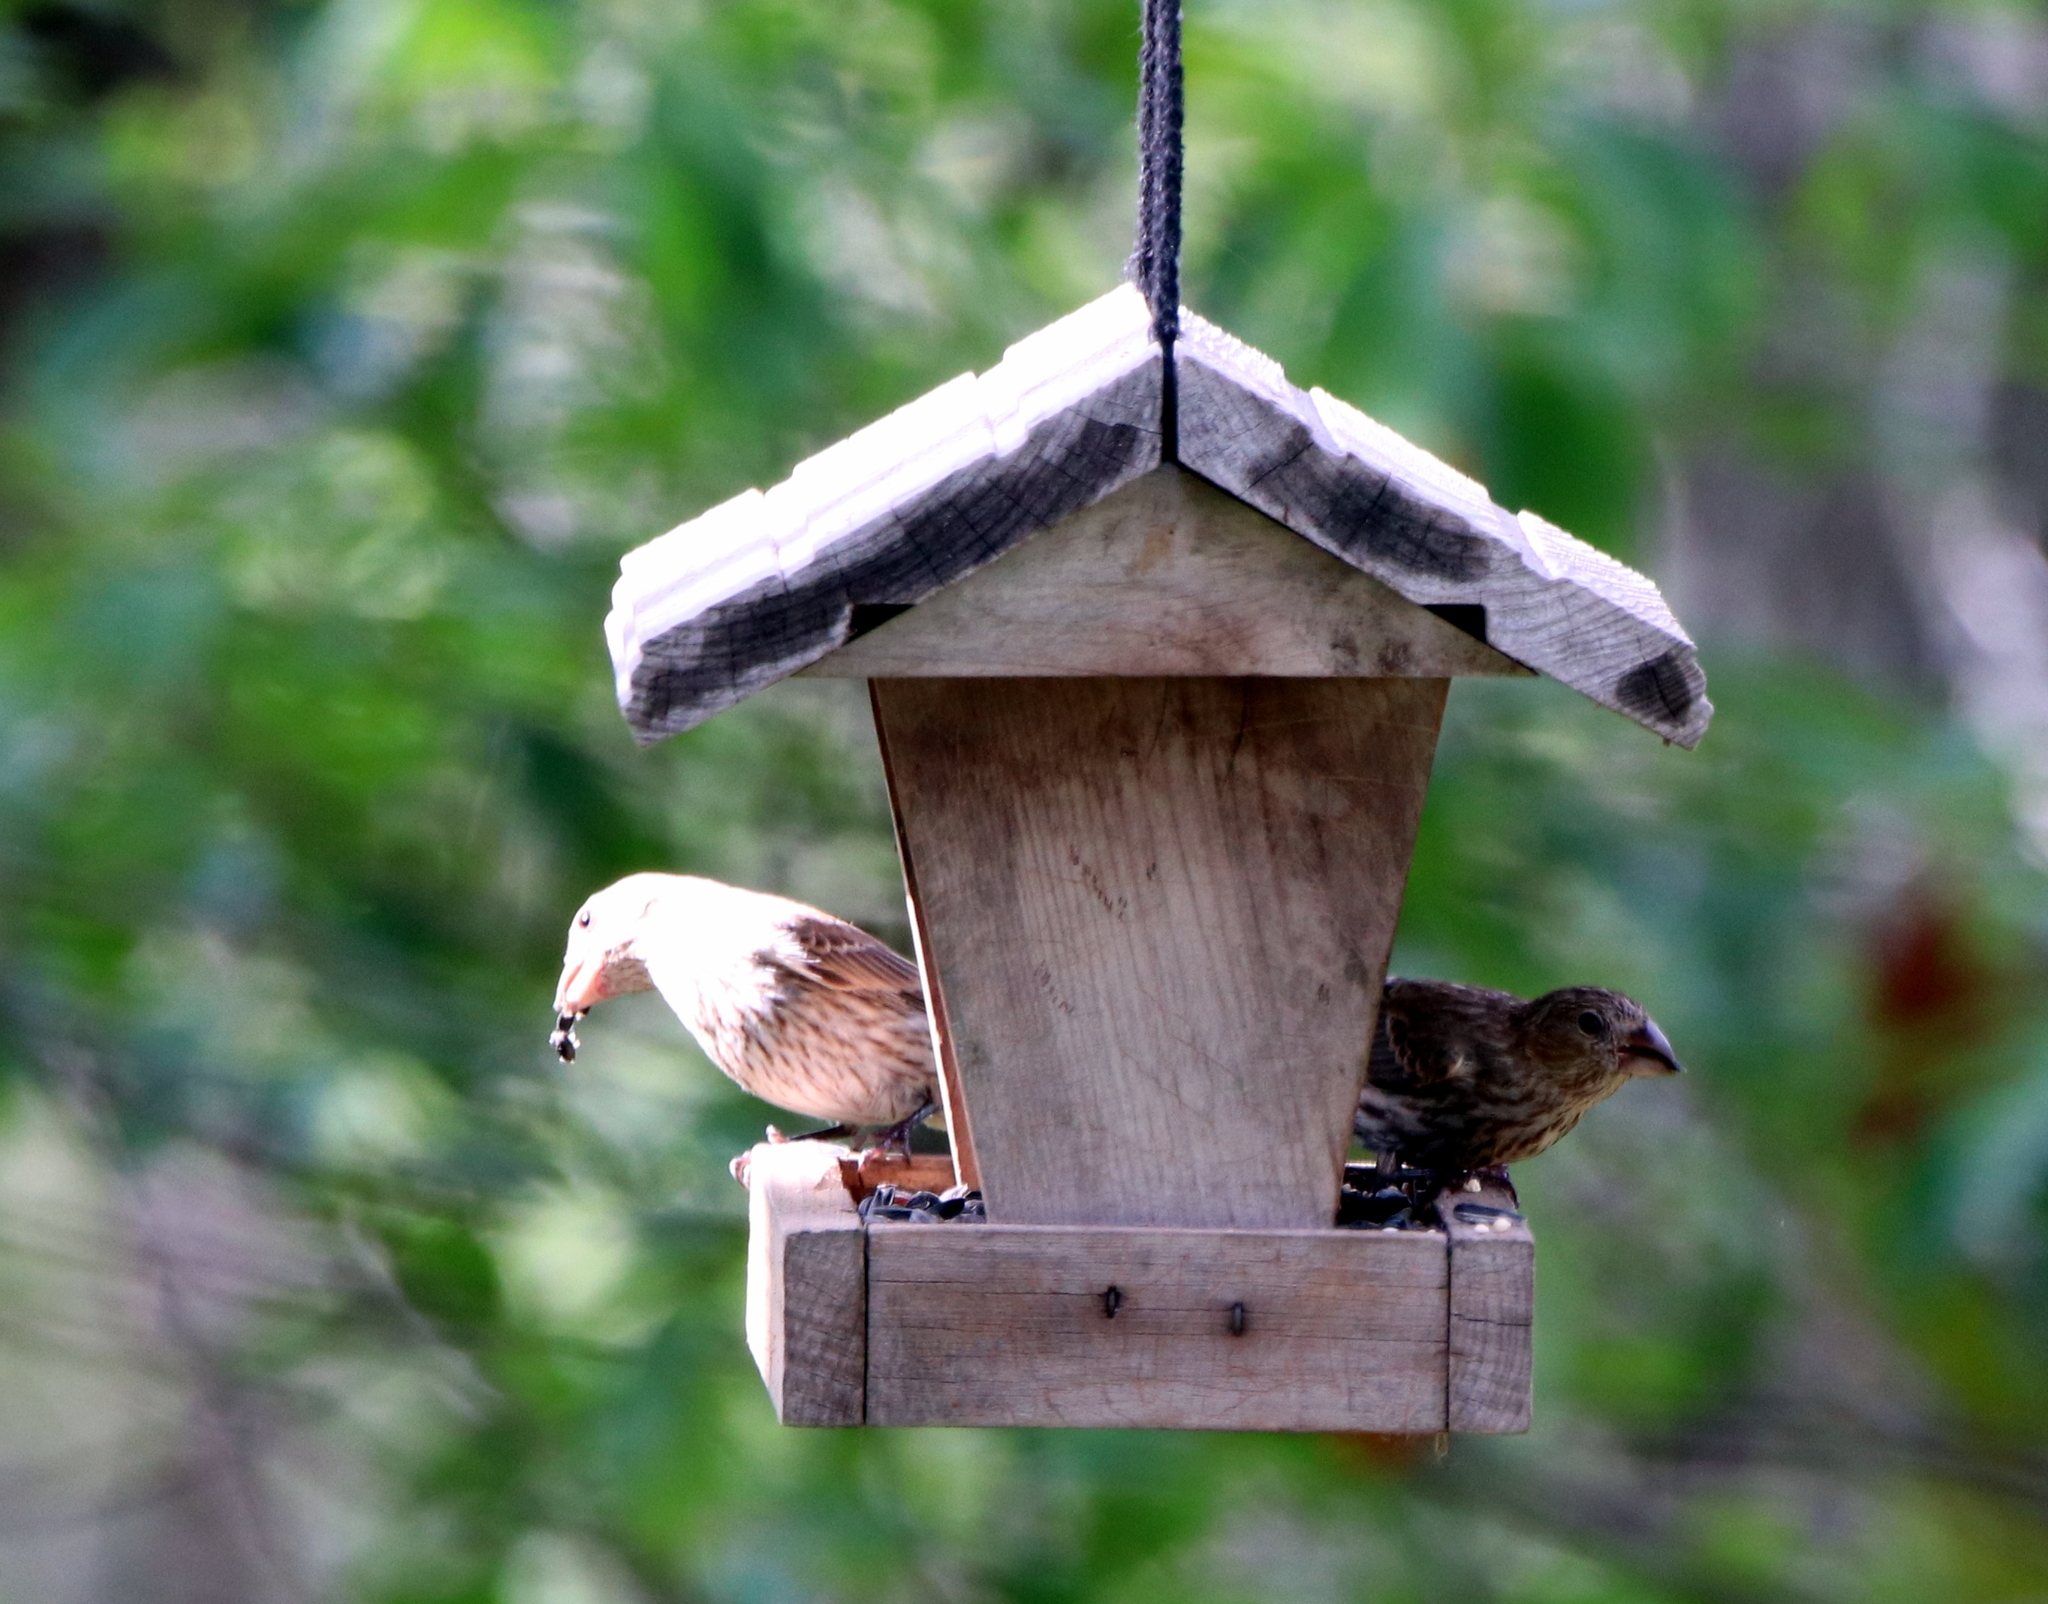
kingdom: Animalia
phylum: Chordata
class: Aves
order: Passeriformes
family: Fringillidae
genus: Haemorhous
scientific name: Haemorhous mexicanus
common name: House finch
